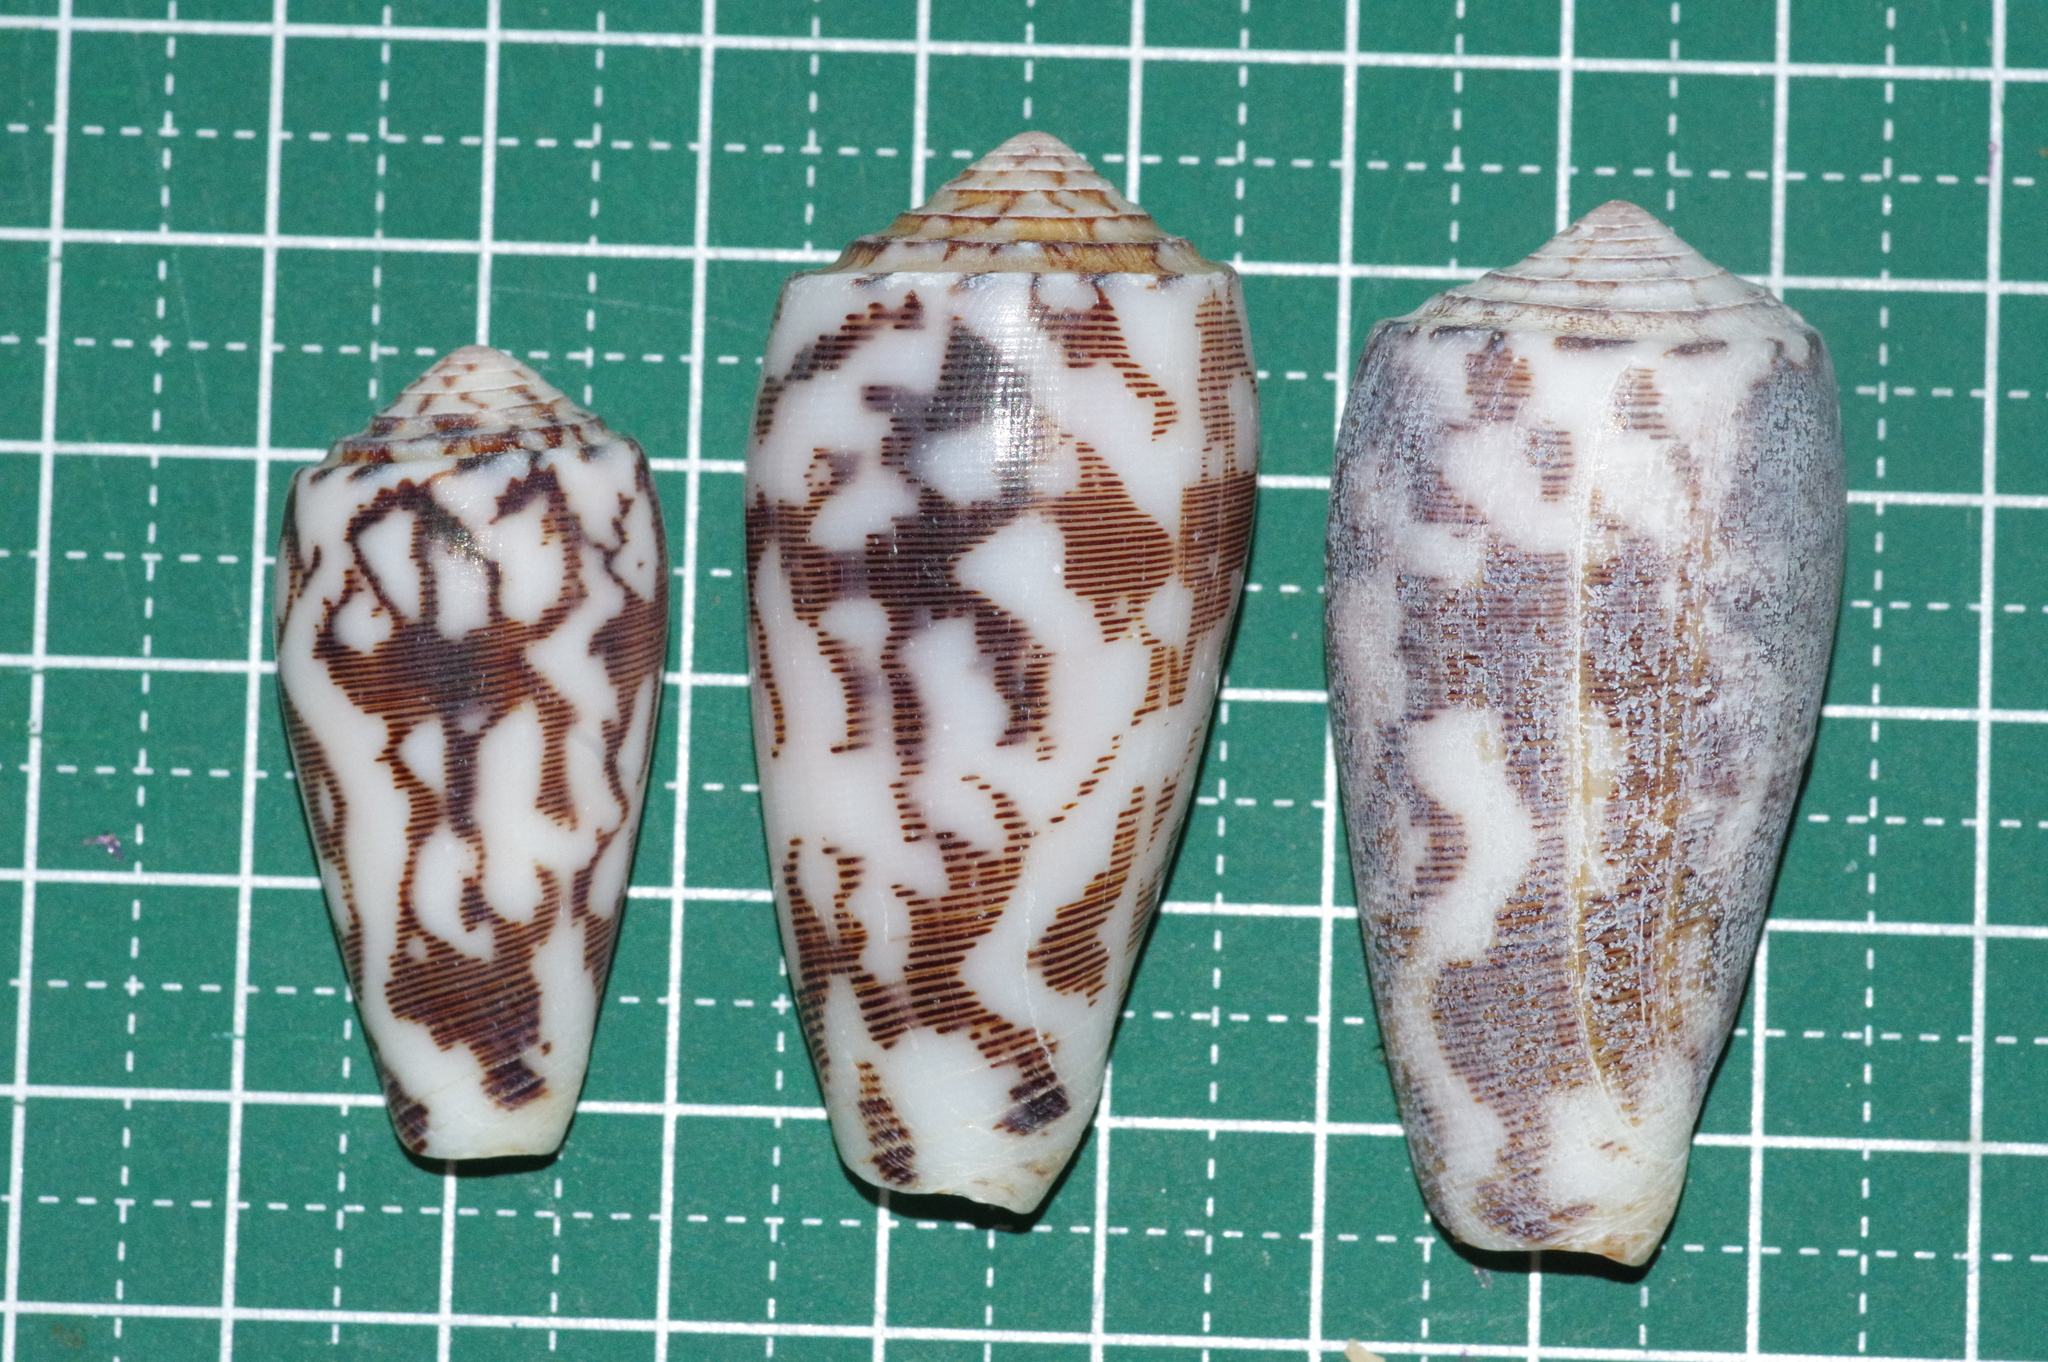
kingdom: Animalia
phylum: Mollusca
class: Gastropoda
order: Neogastropoda
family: Conidae
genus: Conus
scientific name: Conus striatus
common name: Striated cone
